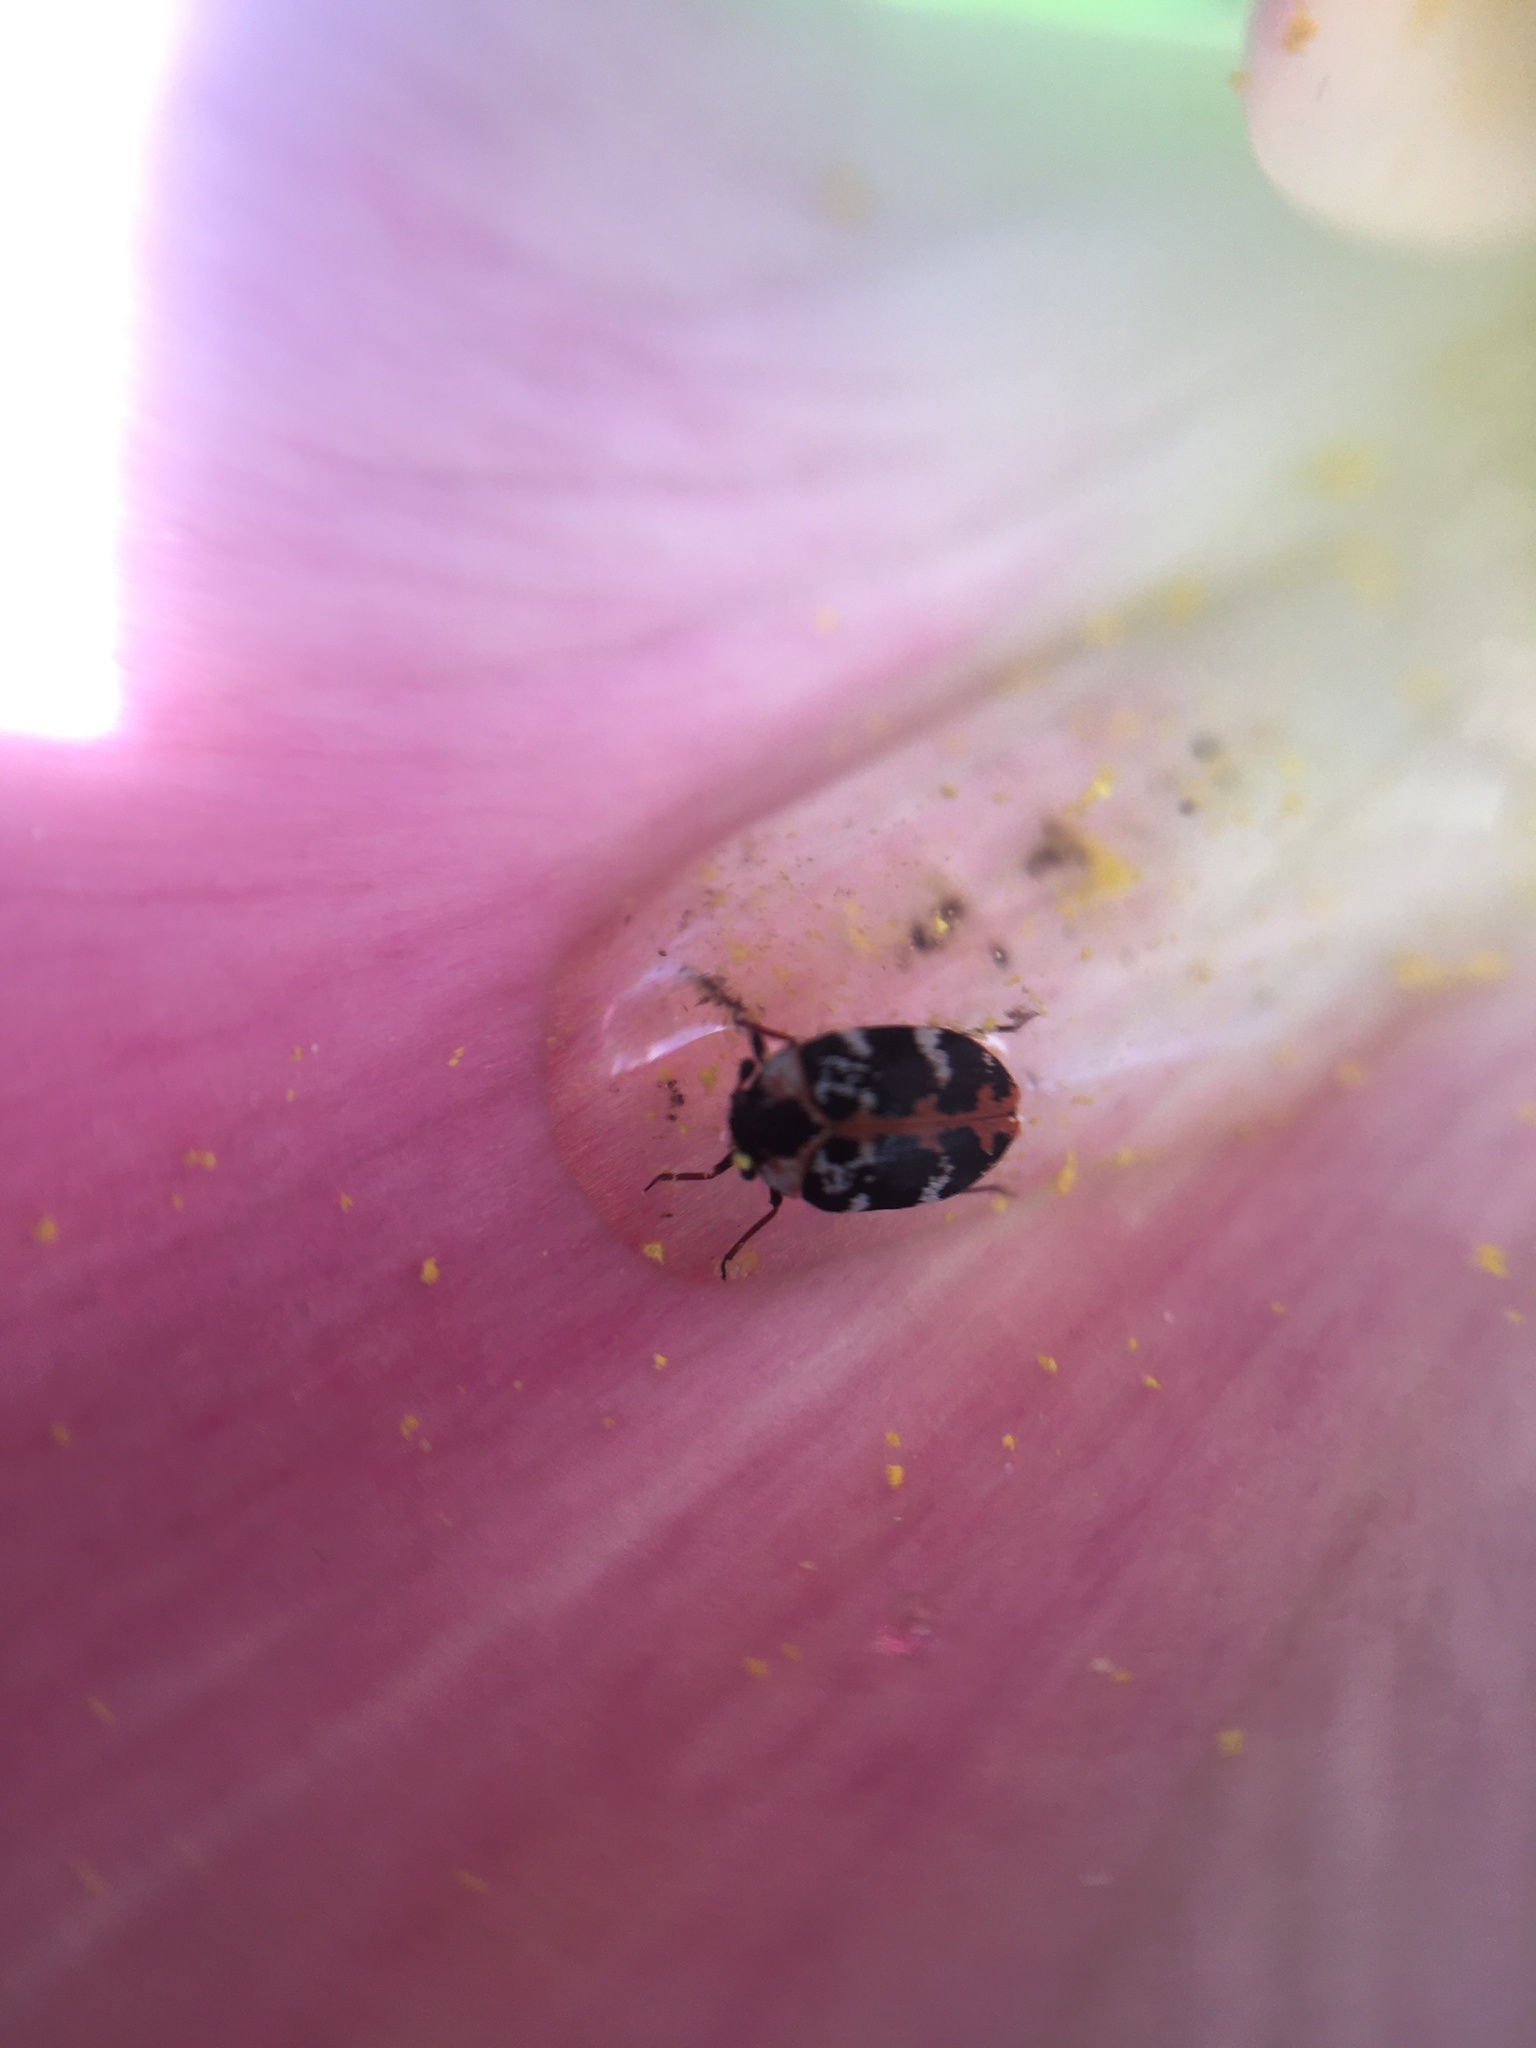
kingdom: Animalia
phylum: Arthropoda
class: Insecta
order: Coleoptera
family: Dermestidae
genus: Anthrenus
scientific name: Anthrenus scrophulariae
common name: Buffalo carpet beetle
